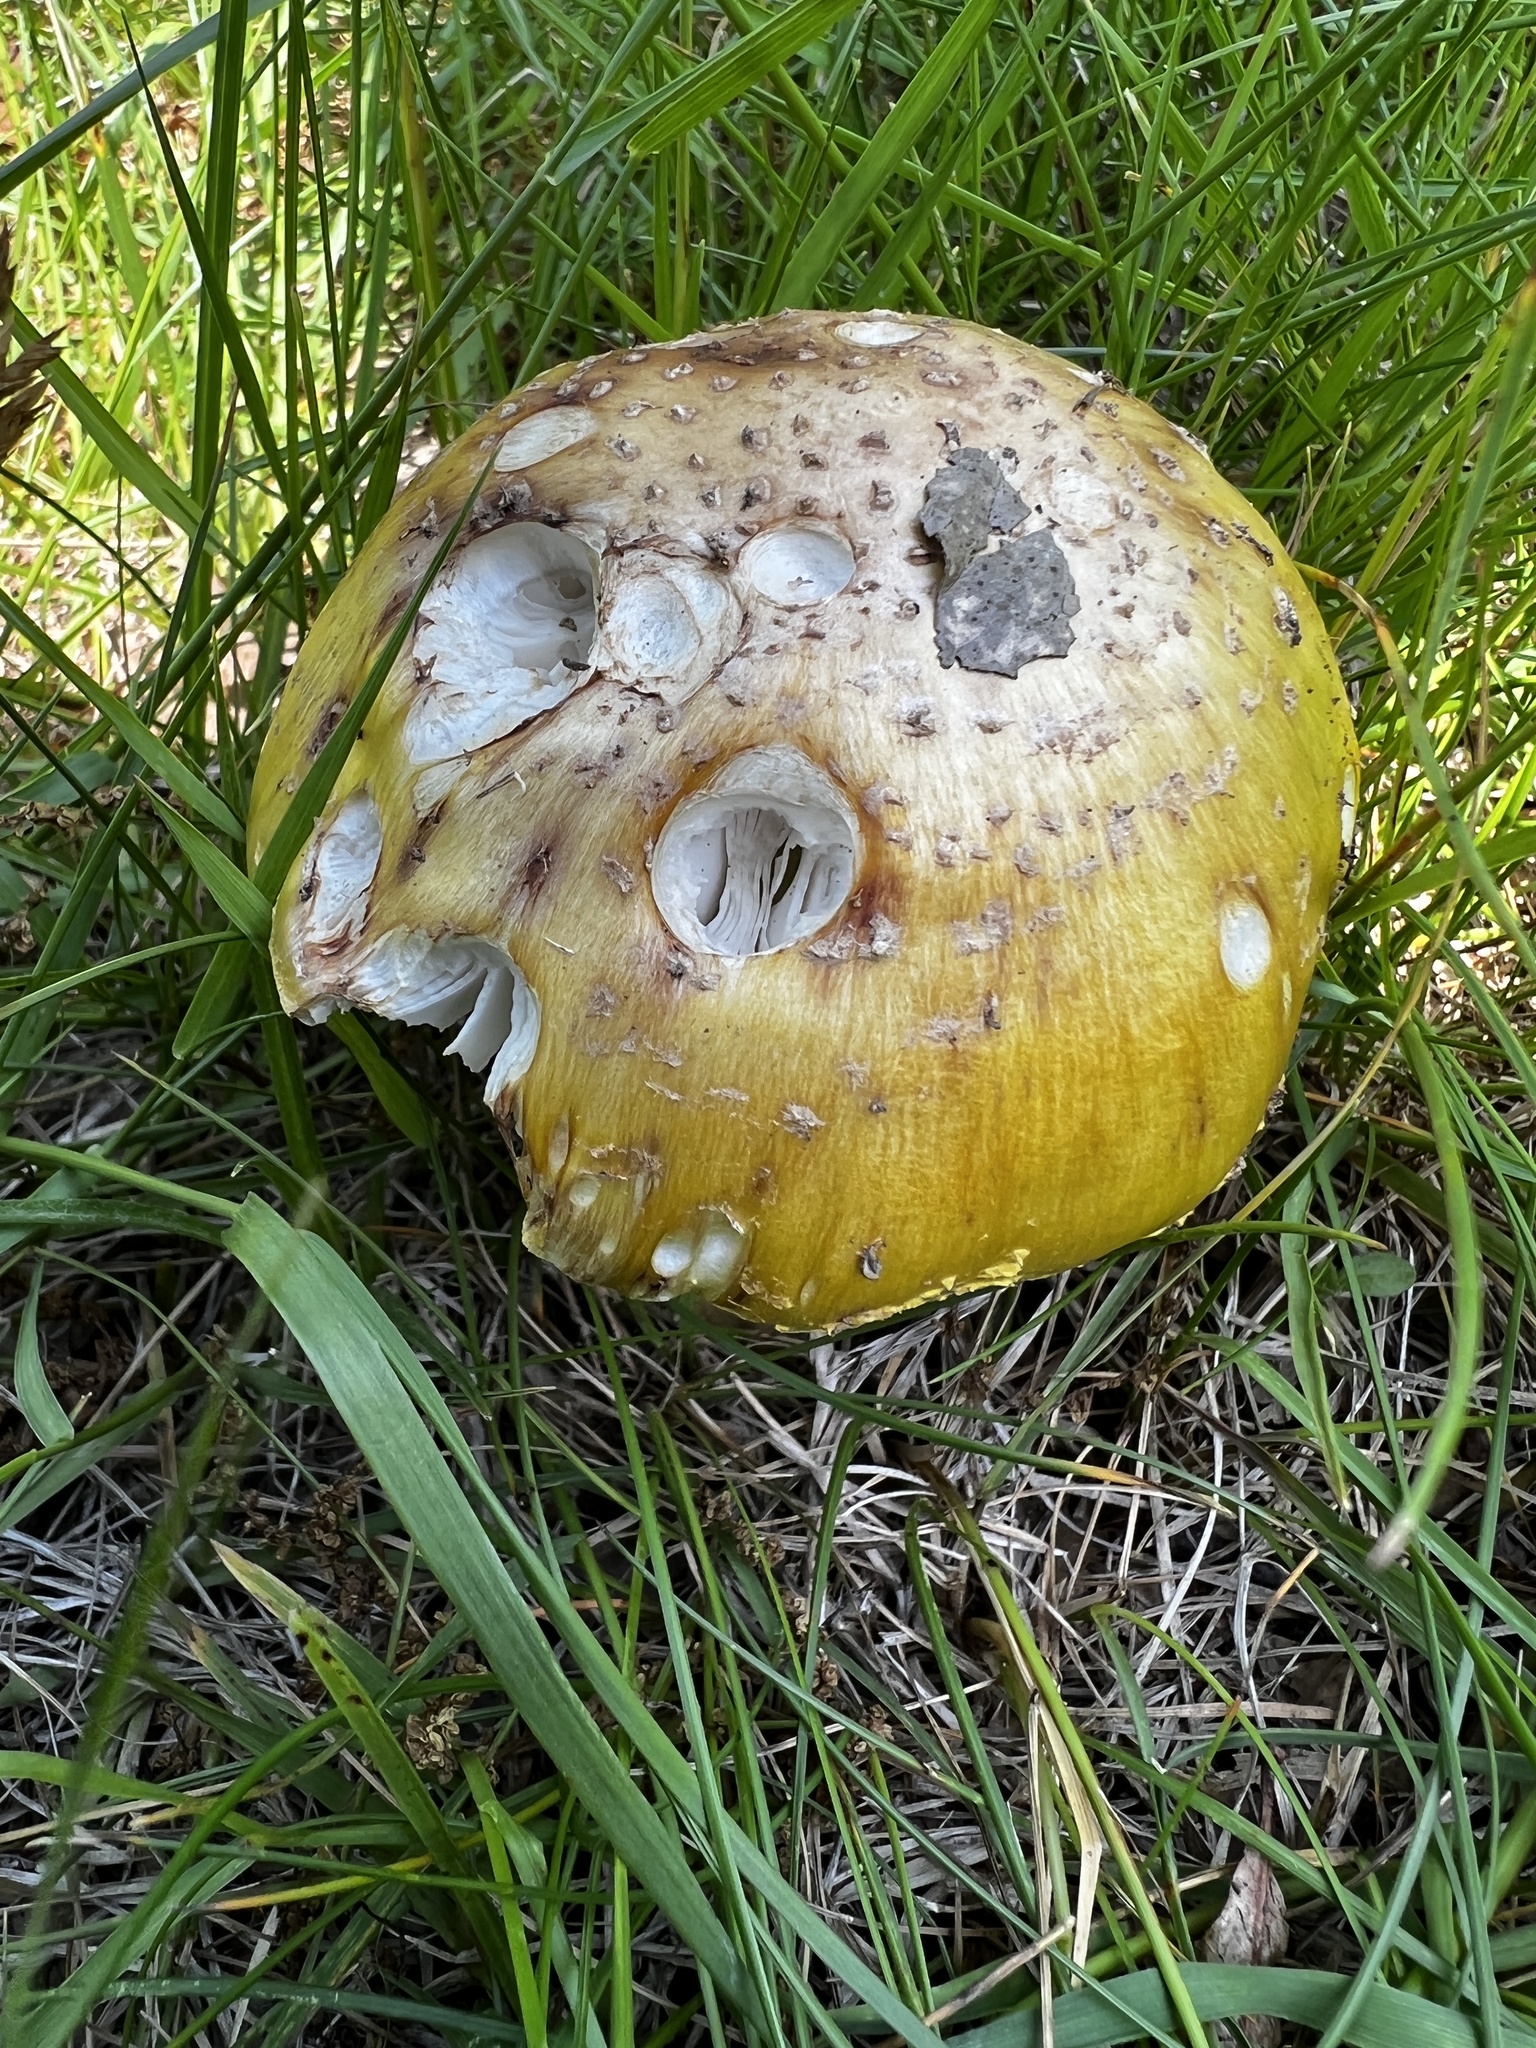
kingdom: Fungi
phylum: Basidiomycota
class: Agaricomycetes
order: Agaricales
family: Amanitaceae
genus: Amanita
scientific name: Amanita flavorubens
